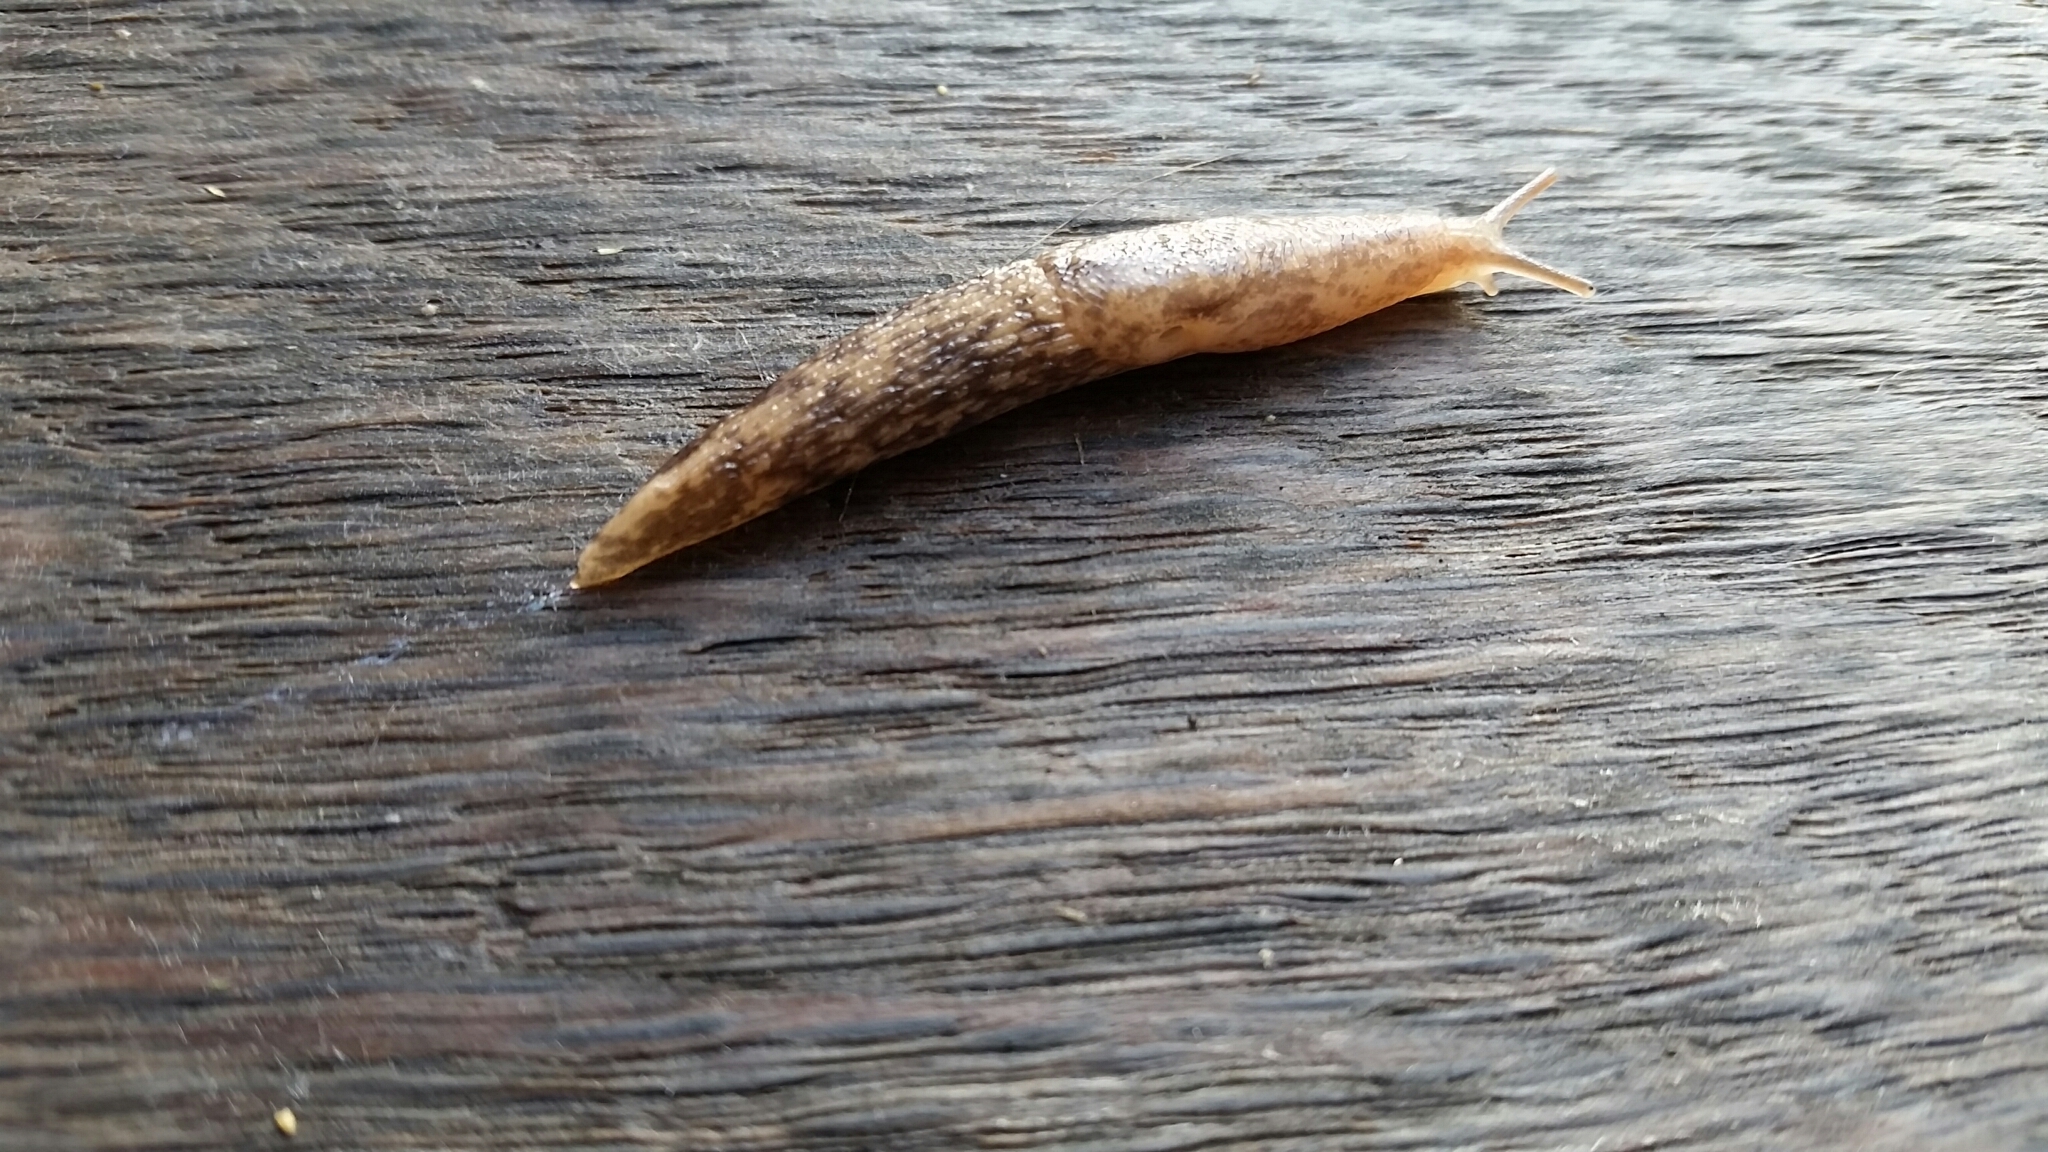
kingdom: Animalia
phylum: Mollusca
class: Gastropoda
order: Stylommatophora
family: Agriolimacidae
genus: Deroceras
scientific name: Deroceras reticulatum
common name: Gray field slug
